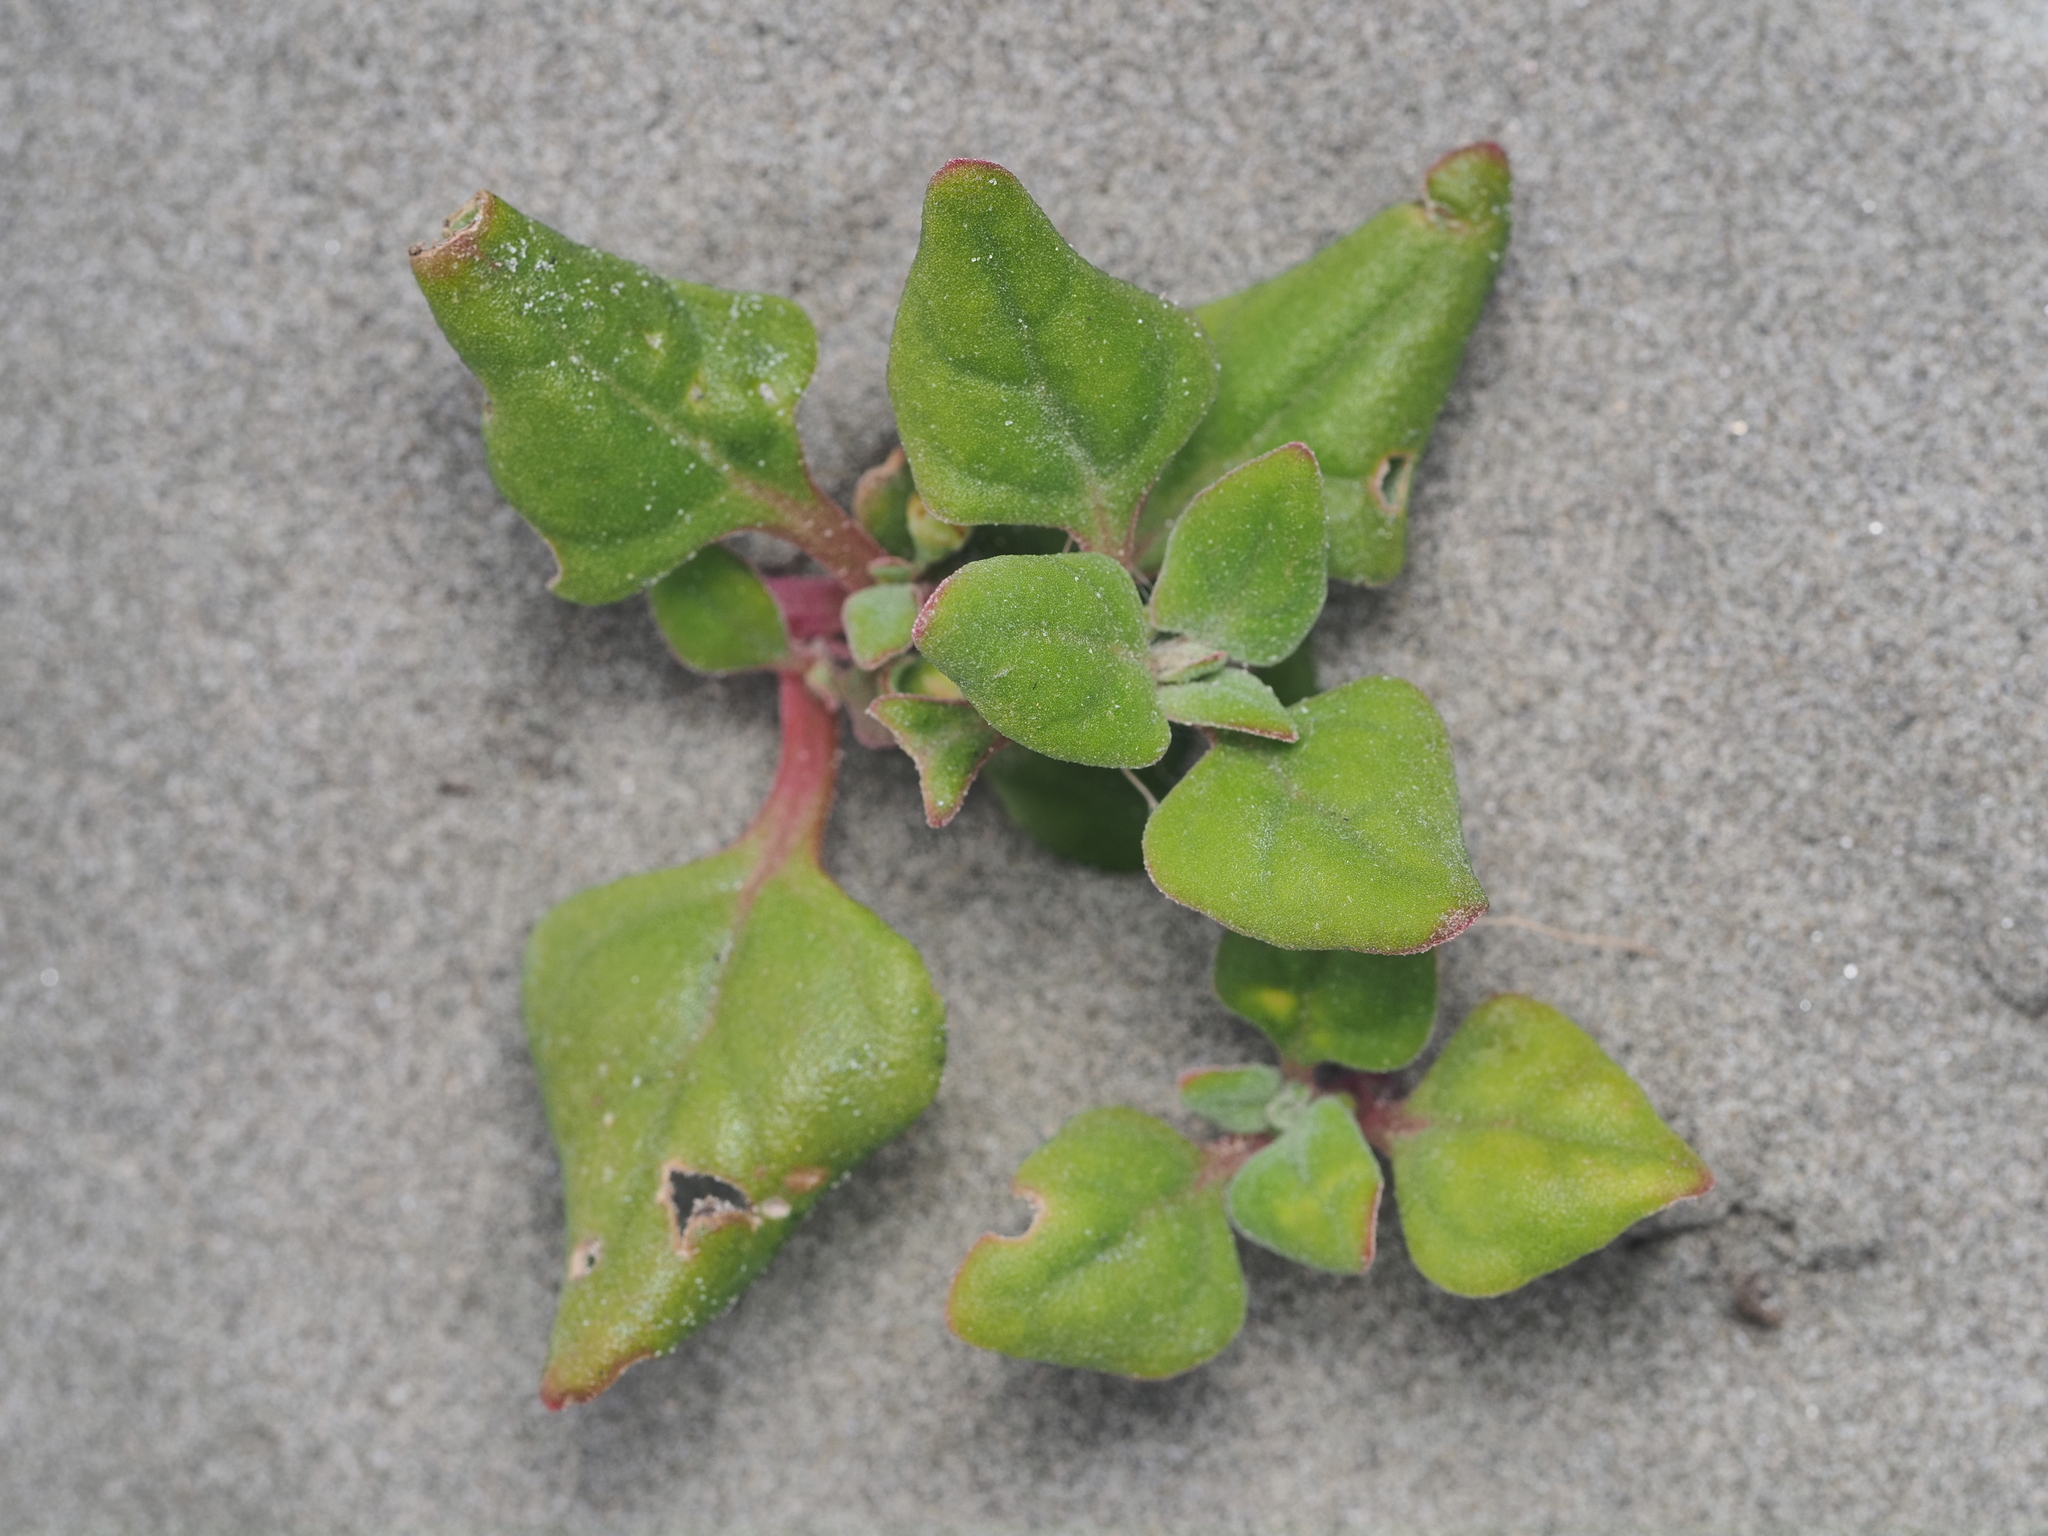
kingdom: Plantae
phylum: Tracheophyta
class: Magnoliopsida
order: Caryophyllales
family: Aizoaceae
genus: Tetragonia
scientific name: Tetragonia implexicoma
